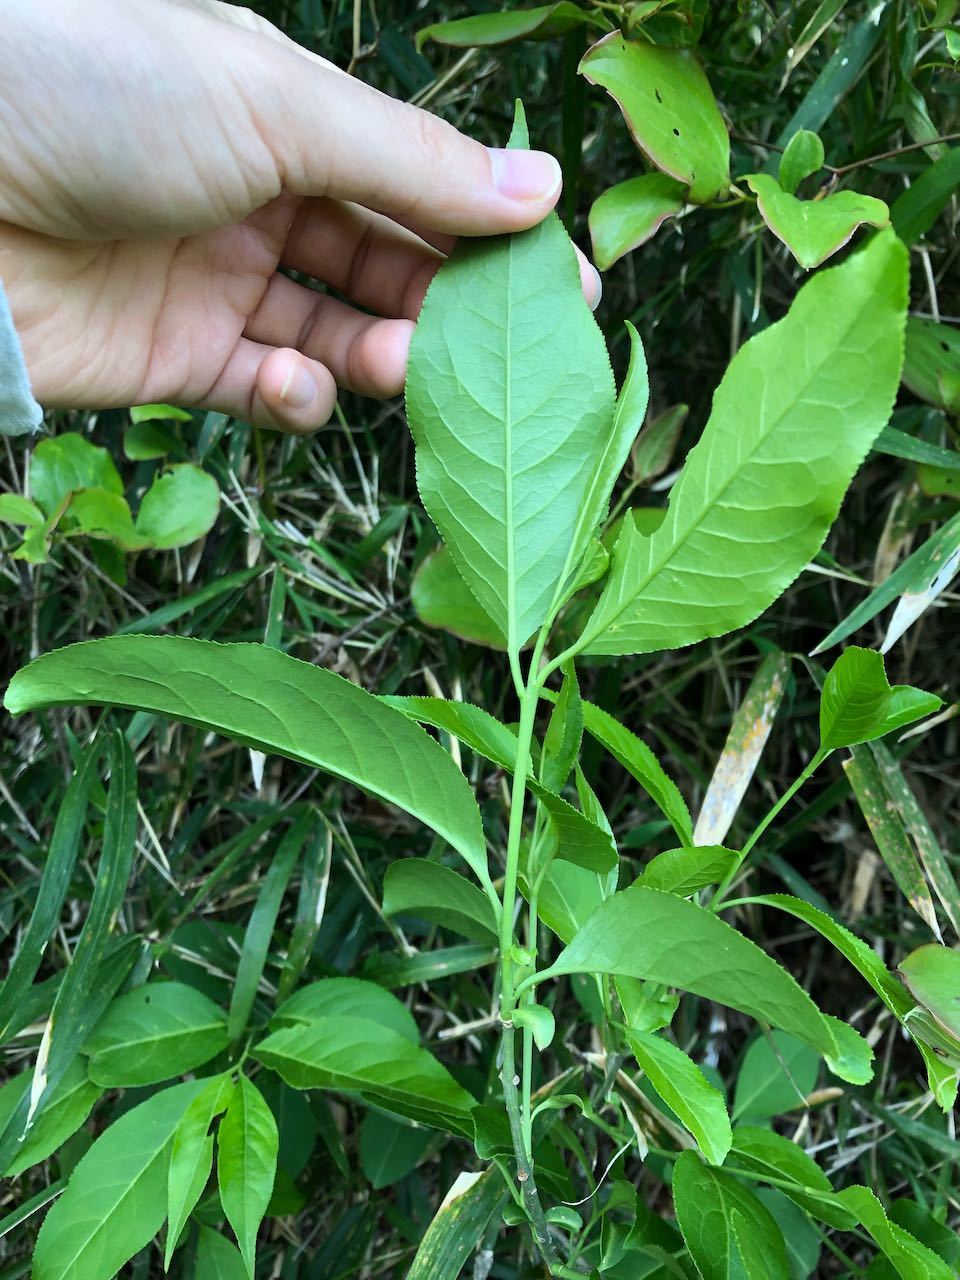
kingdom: Plantae
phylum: Tracheophyta
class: Magnoliopsida
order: Celastrales
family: Celastraceae
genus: Euonymus
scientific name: Euonymus hamiltonianus
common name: Hamilton's spindletree
